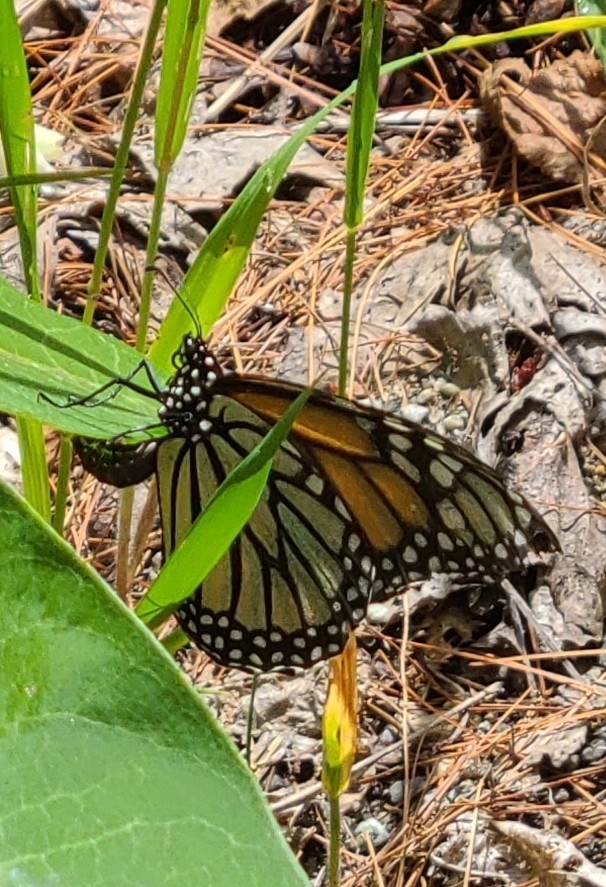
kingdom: Animalia
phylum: Arthropoda
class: Insecta
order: Lepidoptera
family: Nymphalidae
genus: Danaus
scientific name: Danaus plexippus
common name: Monarch
